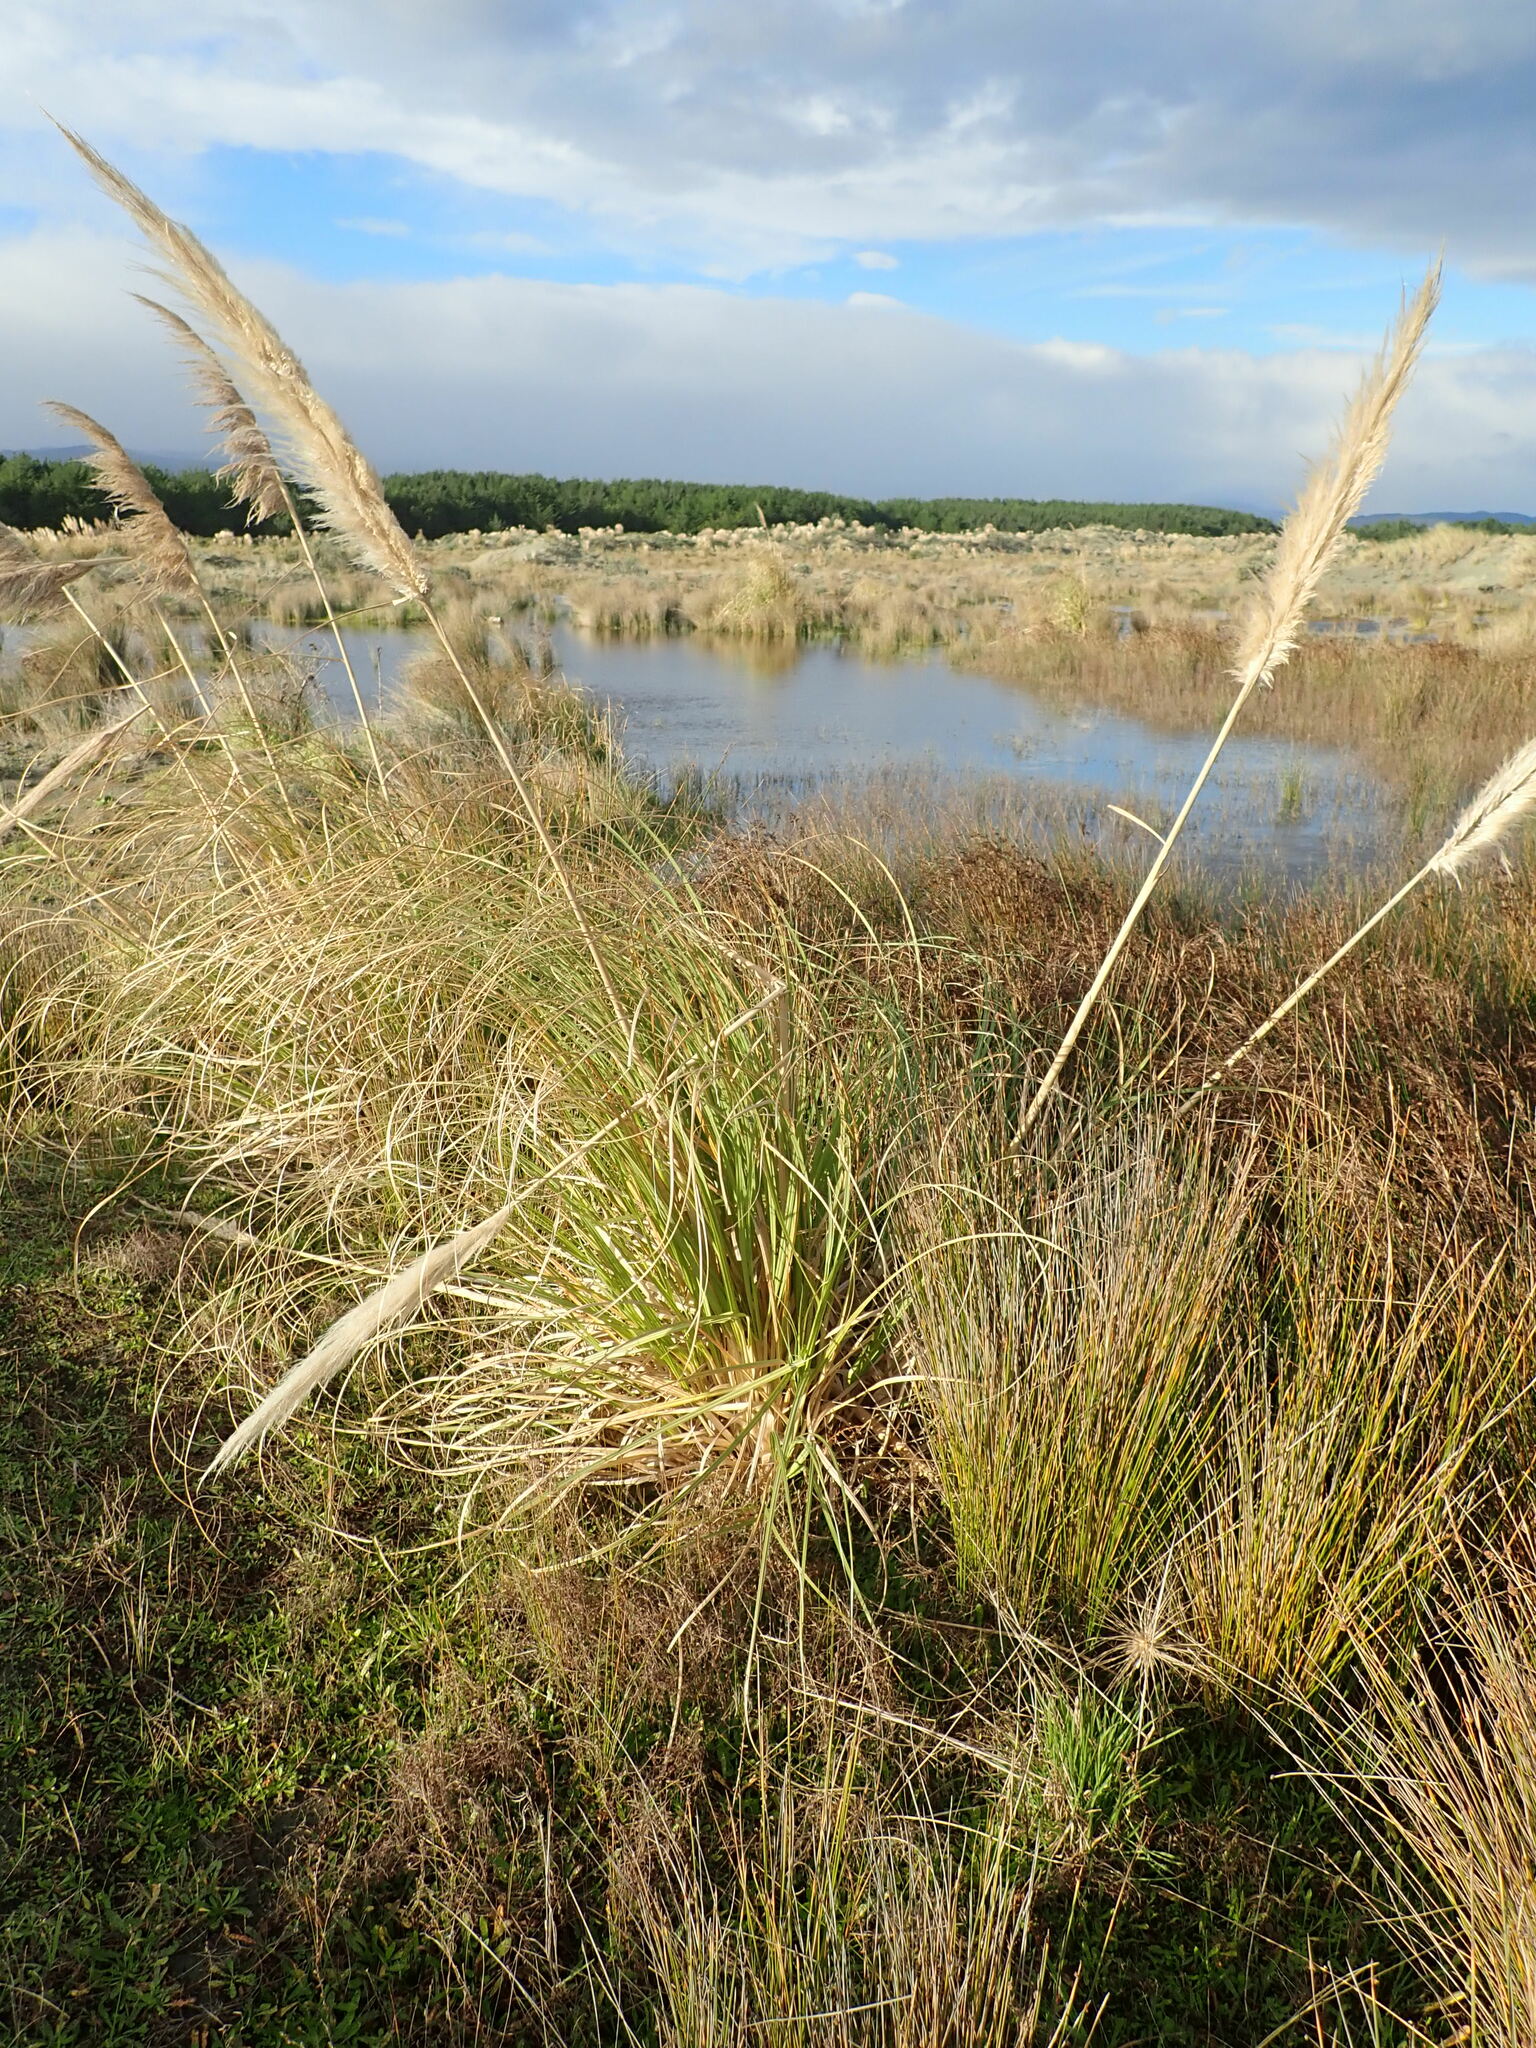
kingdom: Plantae
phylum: Tracheophyta
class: Liliopsida
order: Poales
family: Poaceae
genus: Cortaderia
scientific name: Cortaderia selloana
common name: Uruguayan pampas grass
